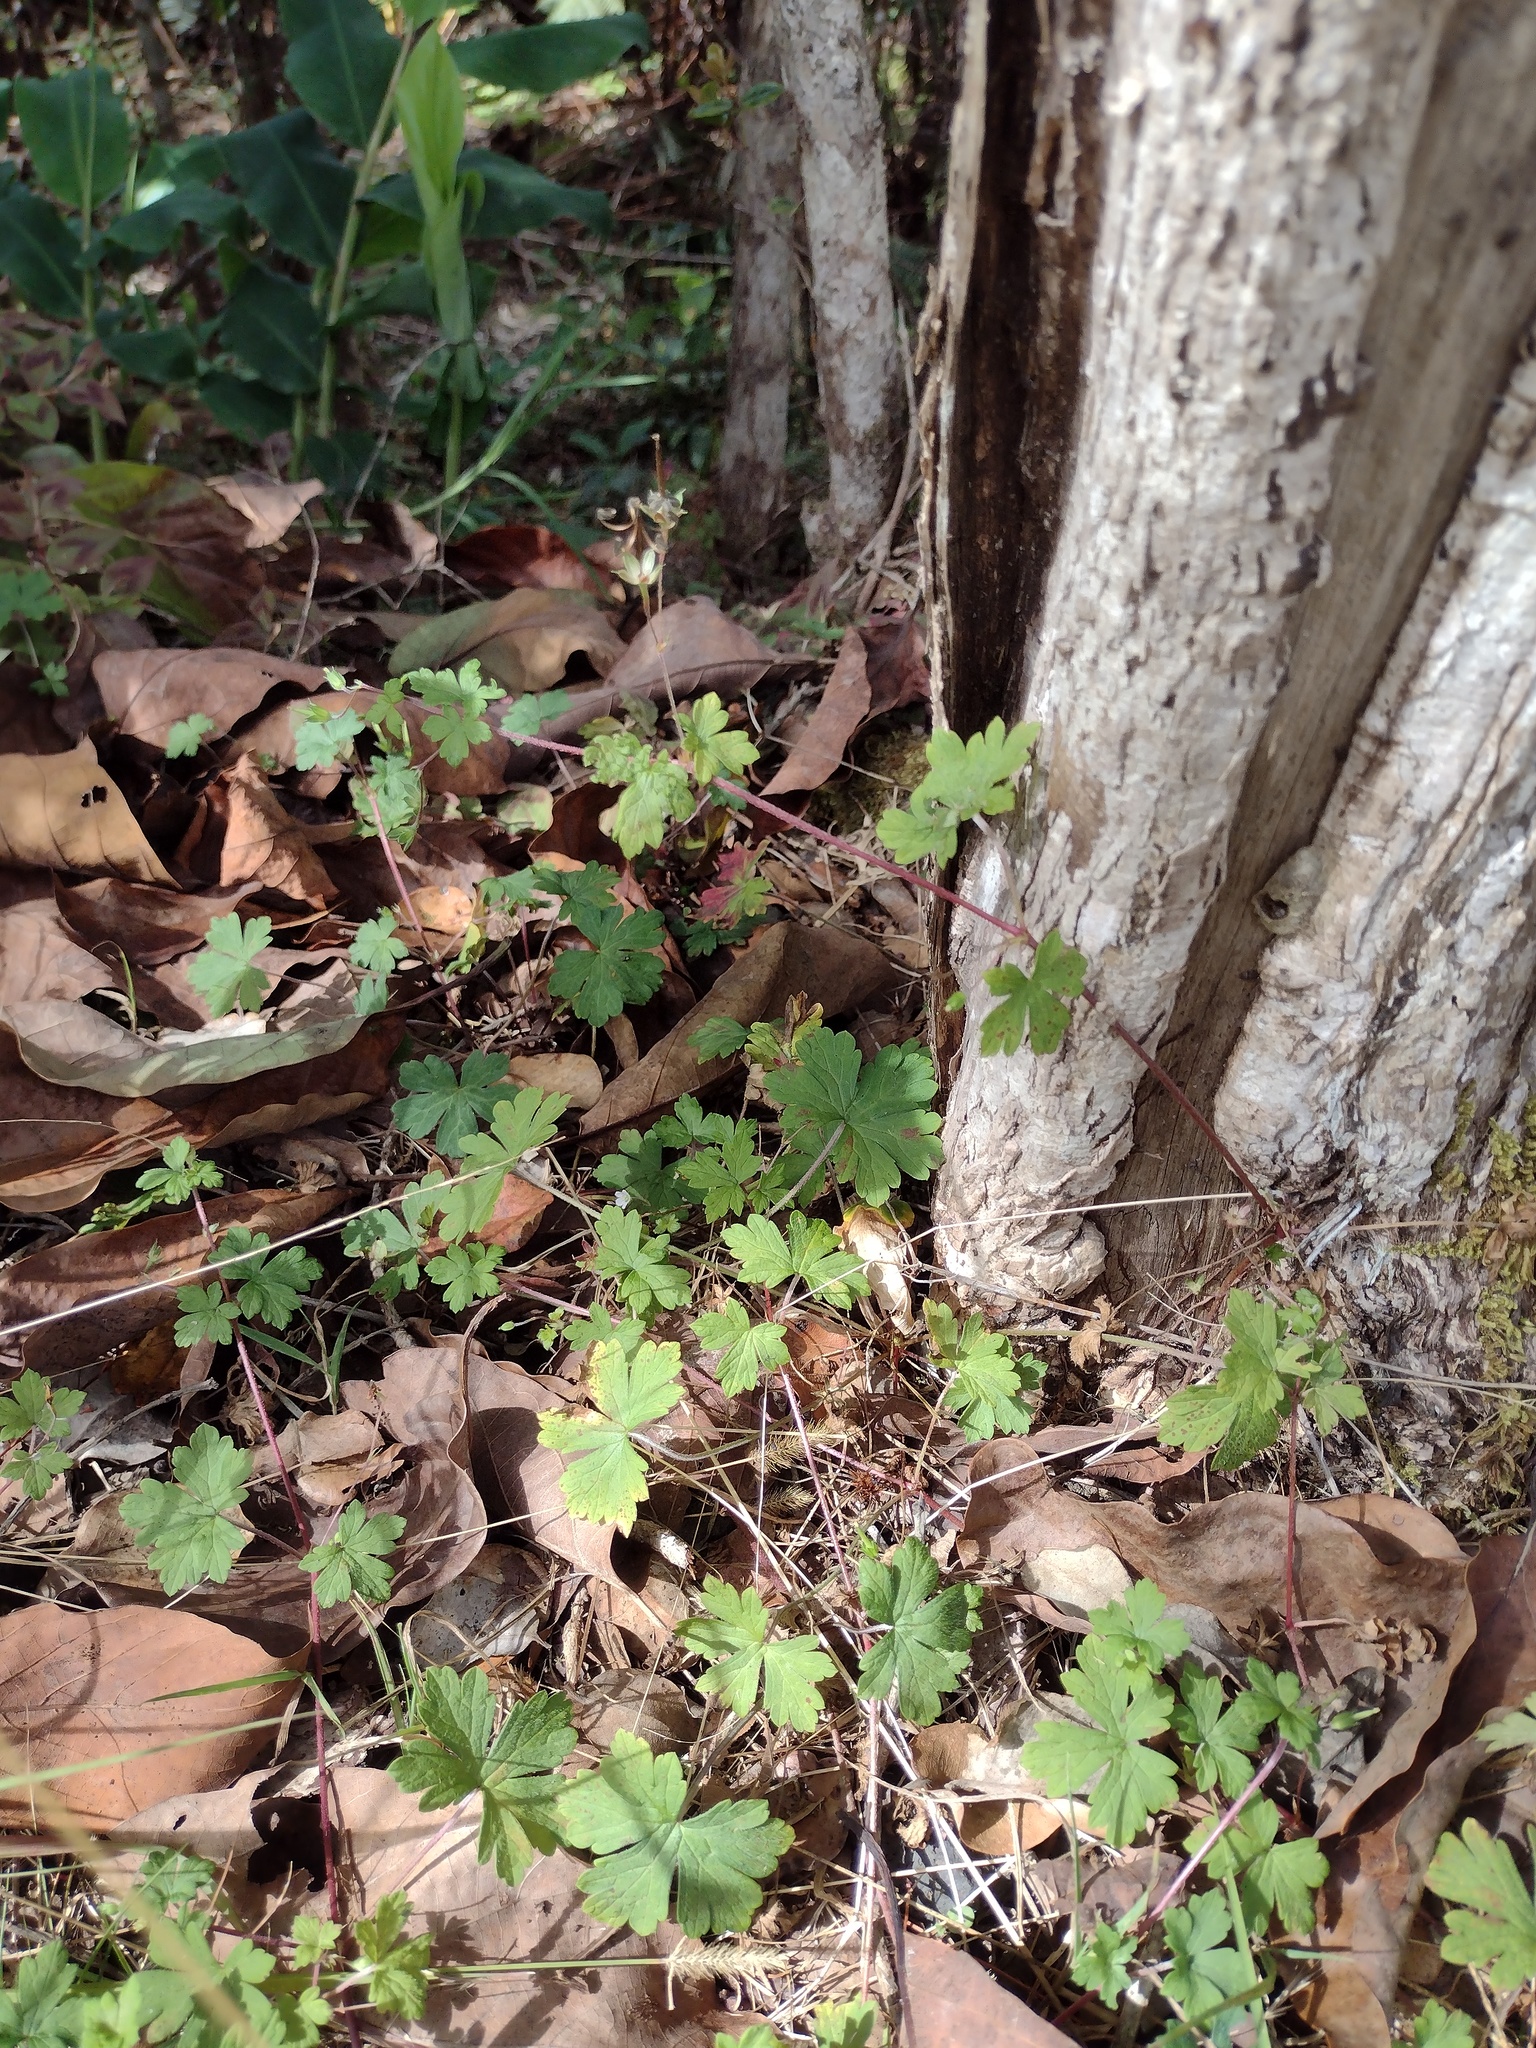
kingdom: Plantae
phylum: Tracheophyta
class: Magnoliopsida
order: Geraniales
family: Geraniaceae
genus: Geranium
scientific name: Geranium homeanum
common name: Australasian geranium
